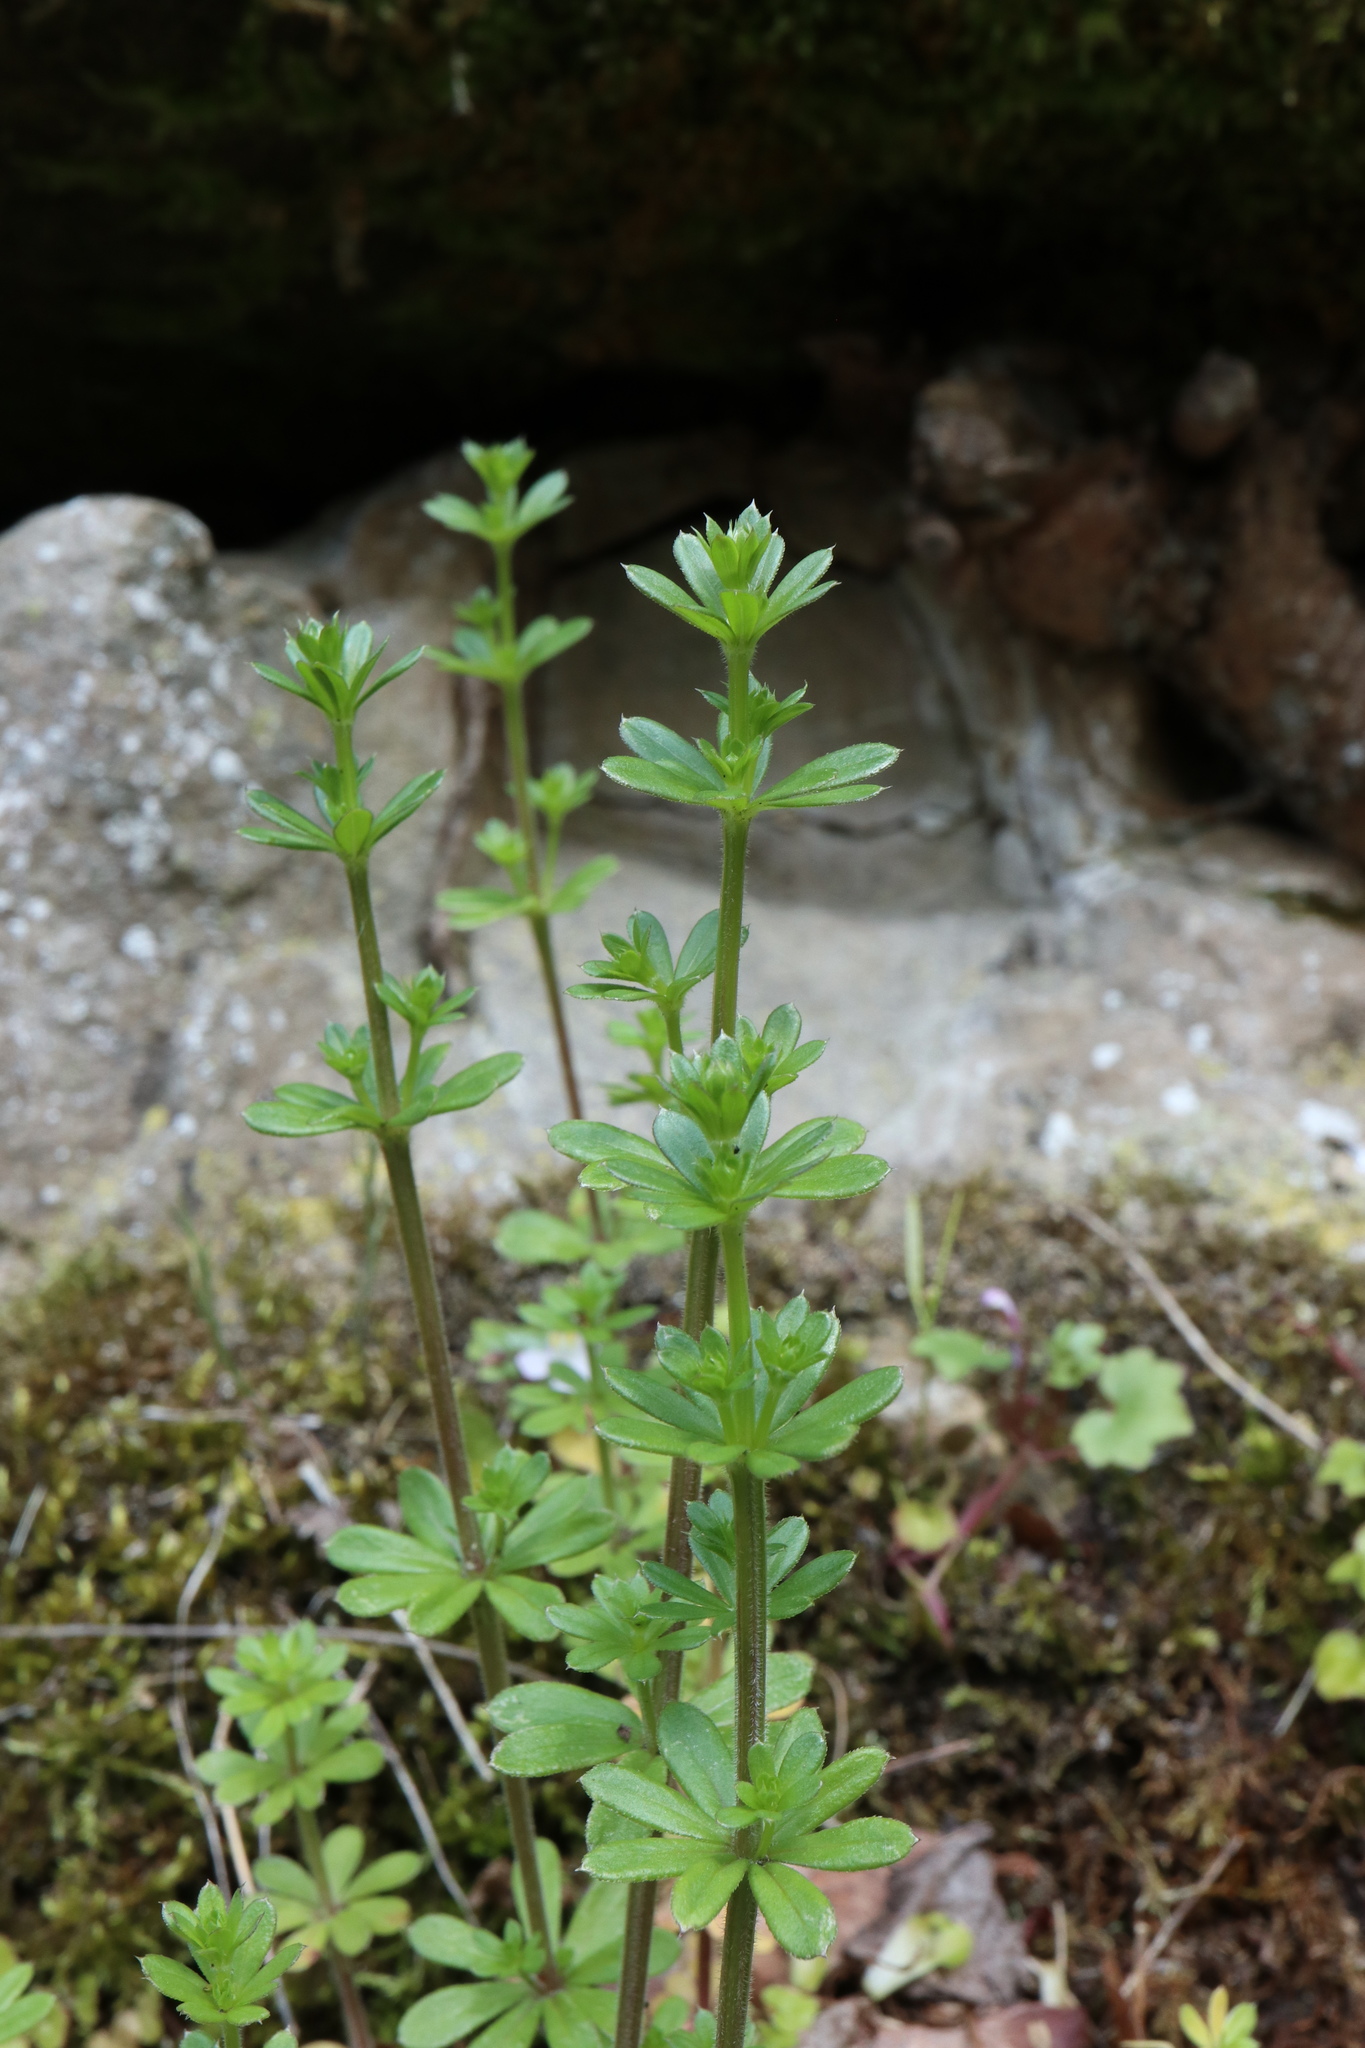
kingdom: Plantae
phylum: Tracheophyta
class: Magnoliopsida
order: Gentianales
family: Rubiaceae
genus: Galium
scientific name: Galium mollugo
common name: Hedge bedstraw
